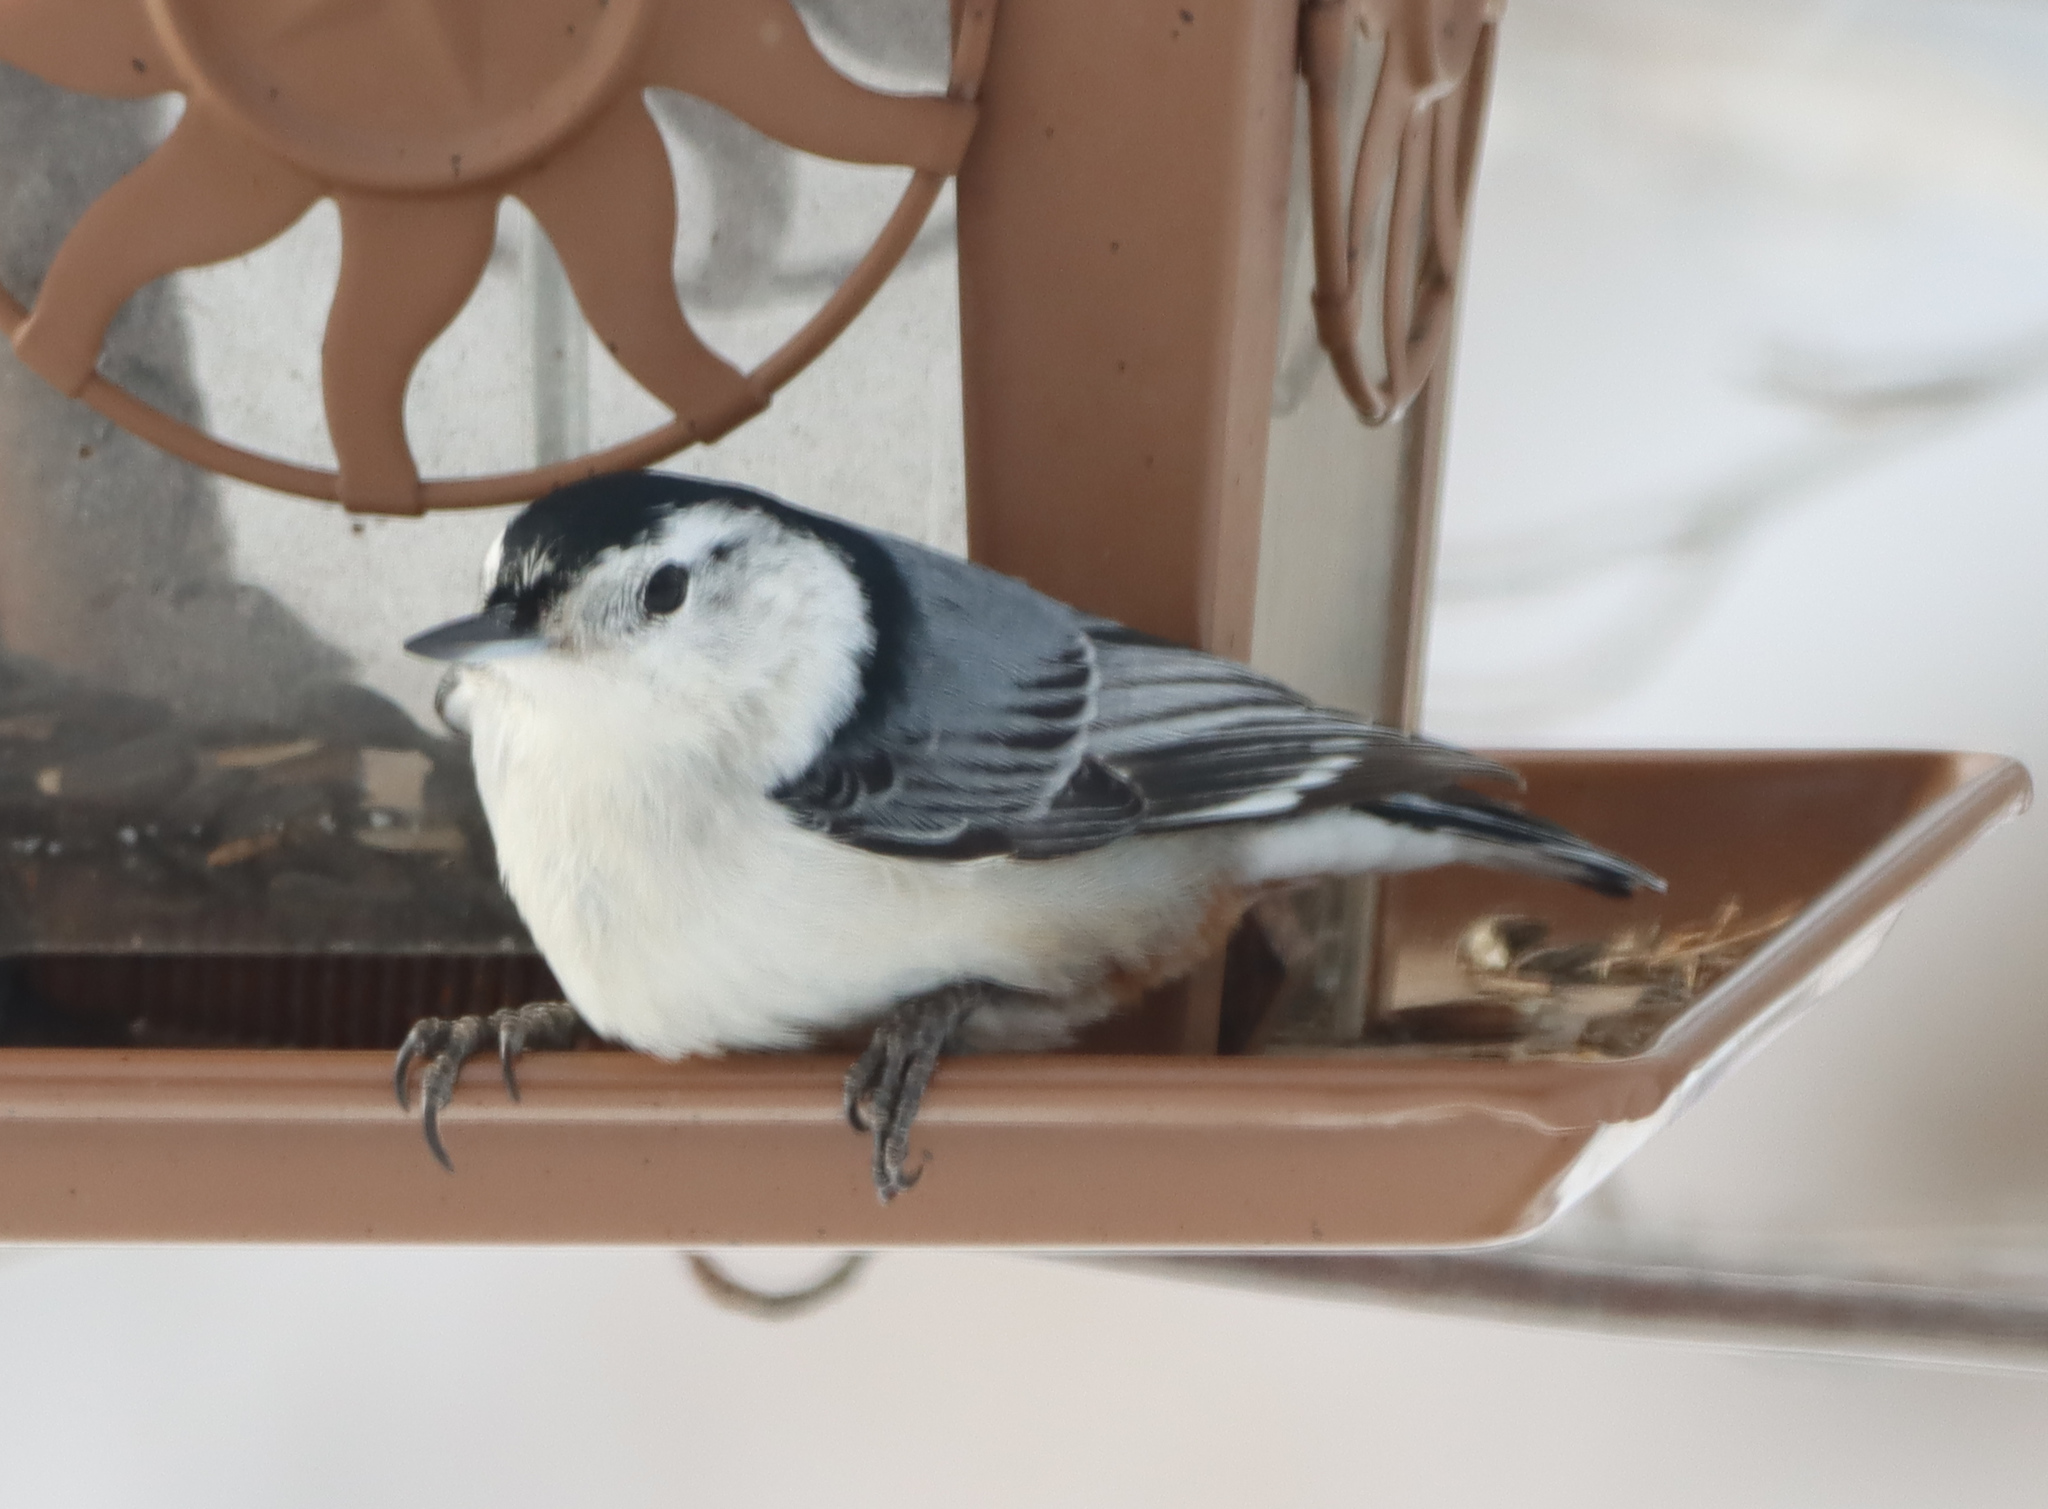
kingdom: Animalia
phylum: Chordata
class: Aves
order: Passeriformes
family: Sittidae
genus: Sitta
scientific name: Sitta carolinensis
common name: White-breasted nuthatch
